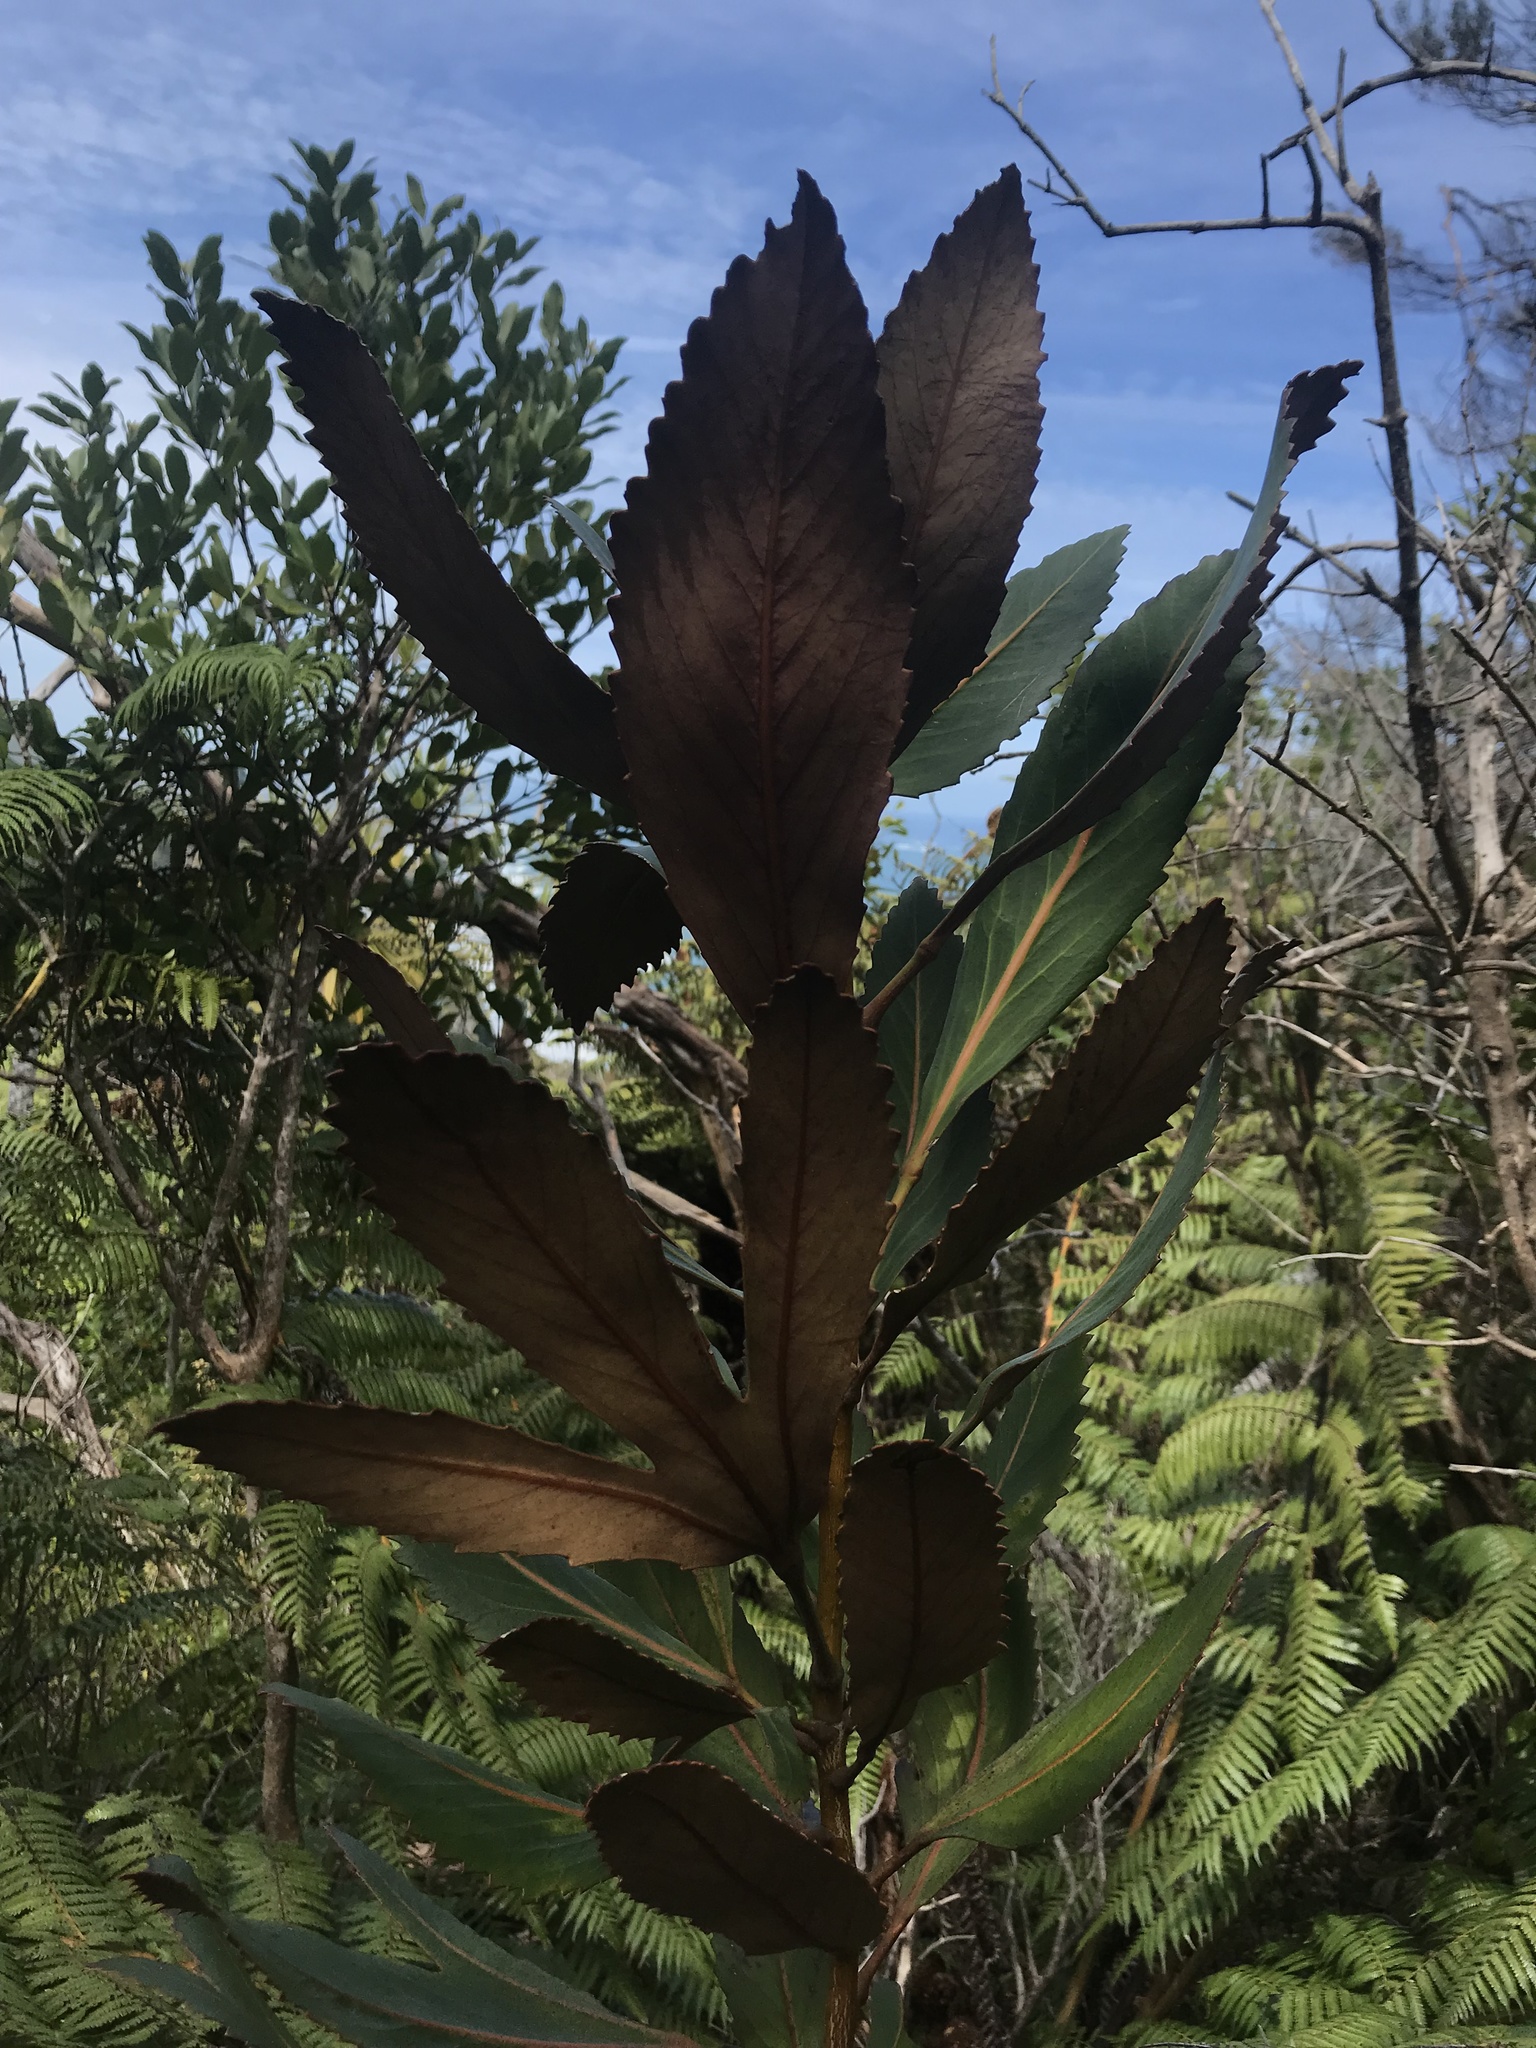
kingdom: Plantae
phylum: Tracheophyta
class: Magnoliopsida
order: Apiales
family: Araliaceae
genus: Pseudopanax
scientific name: Pseudopanax
